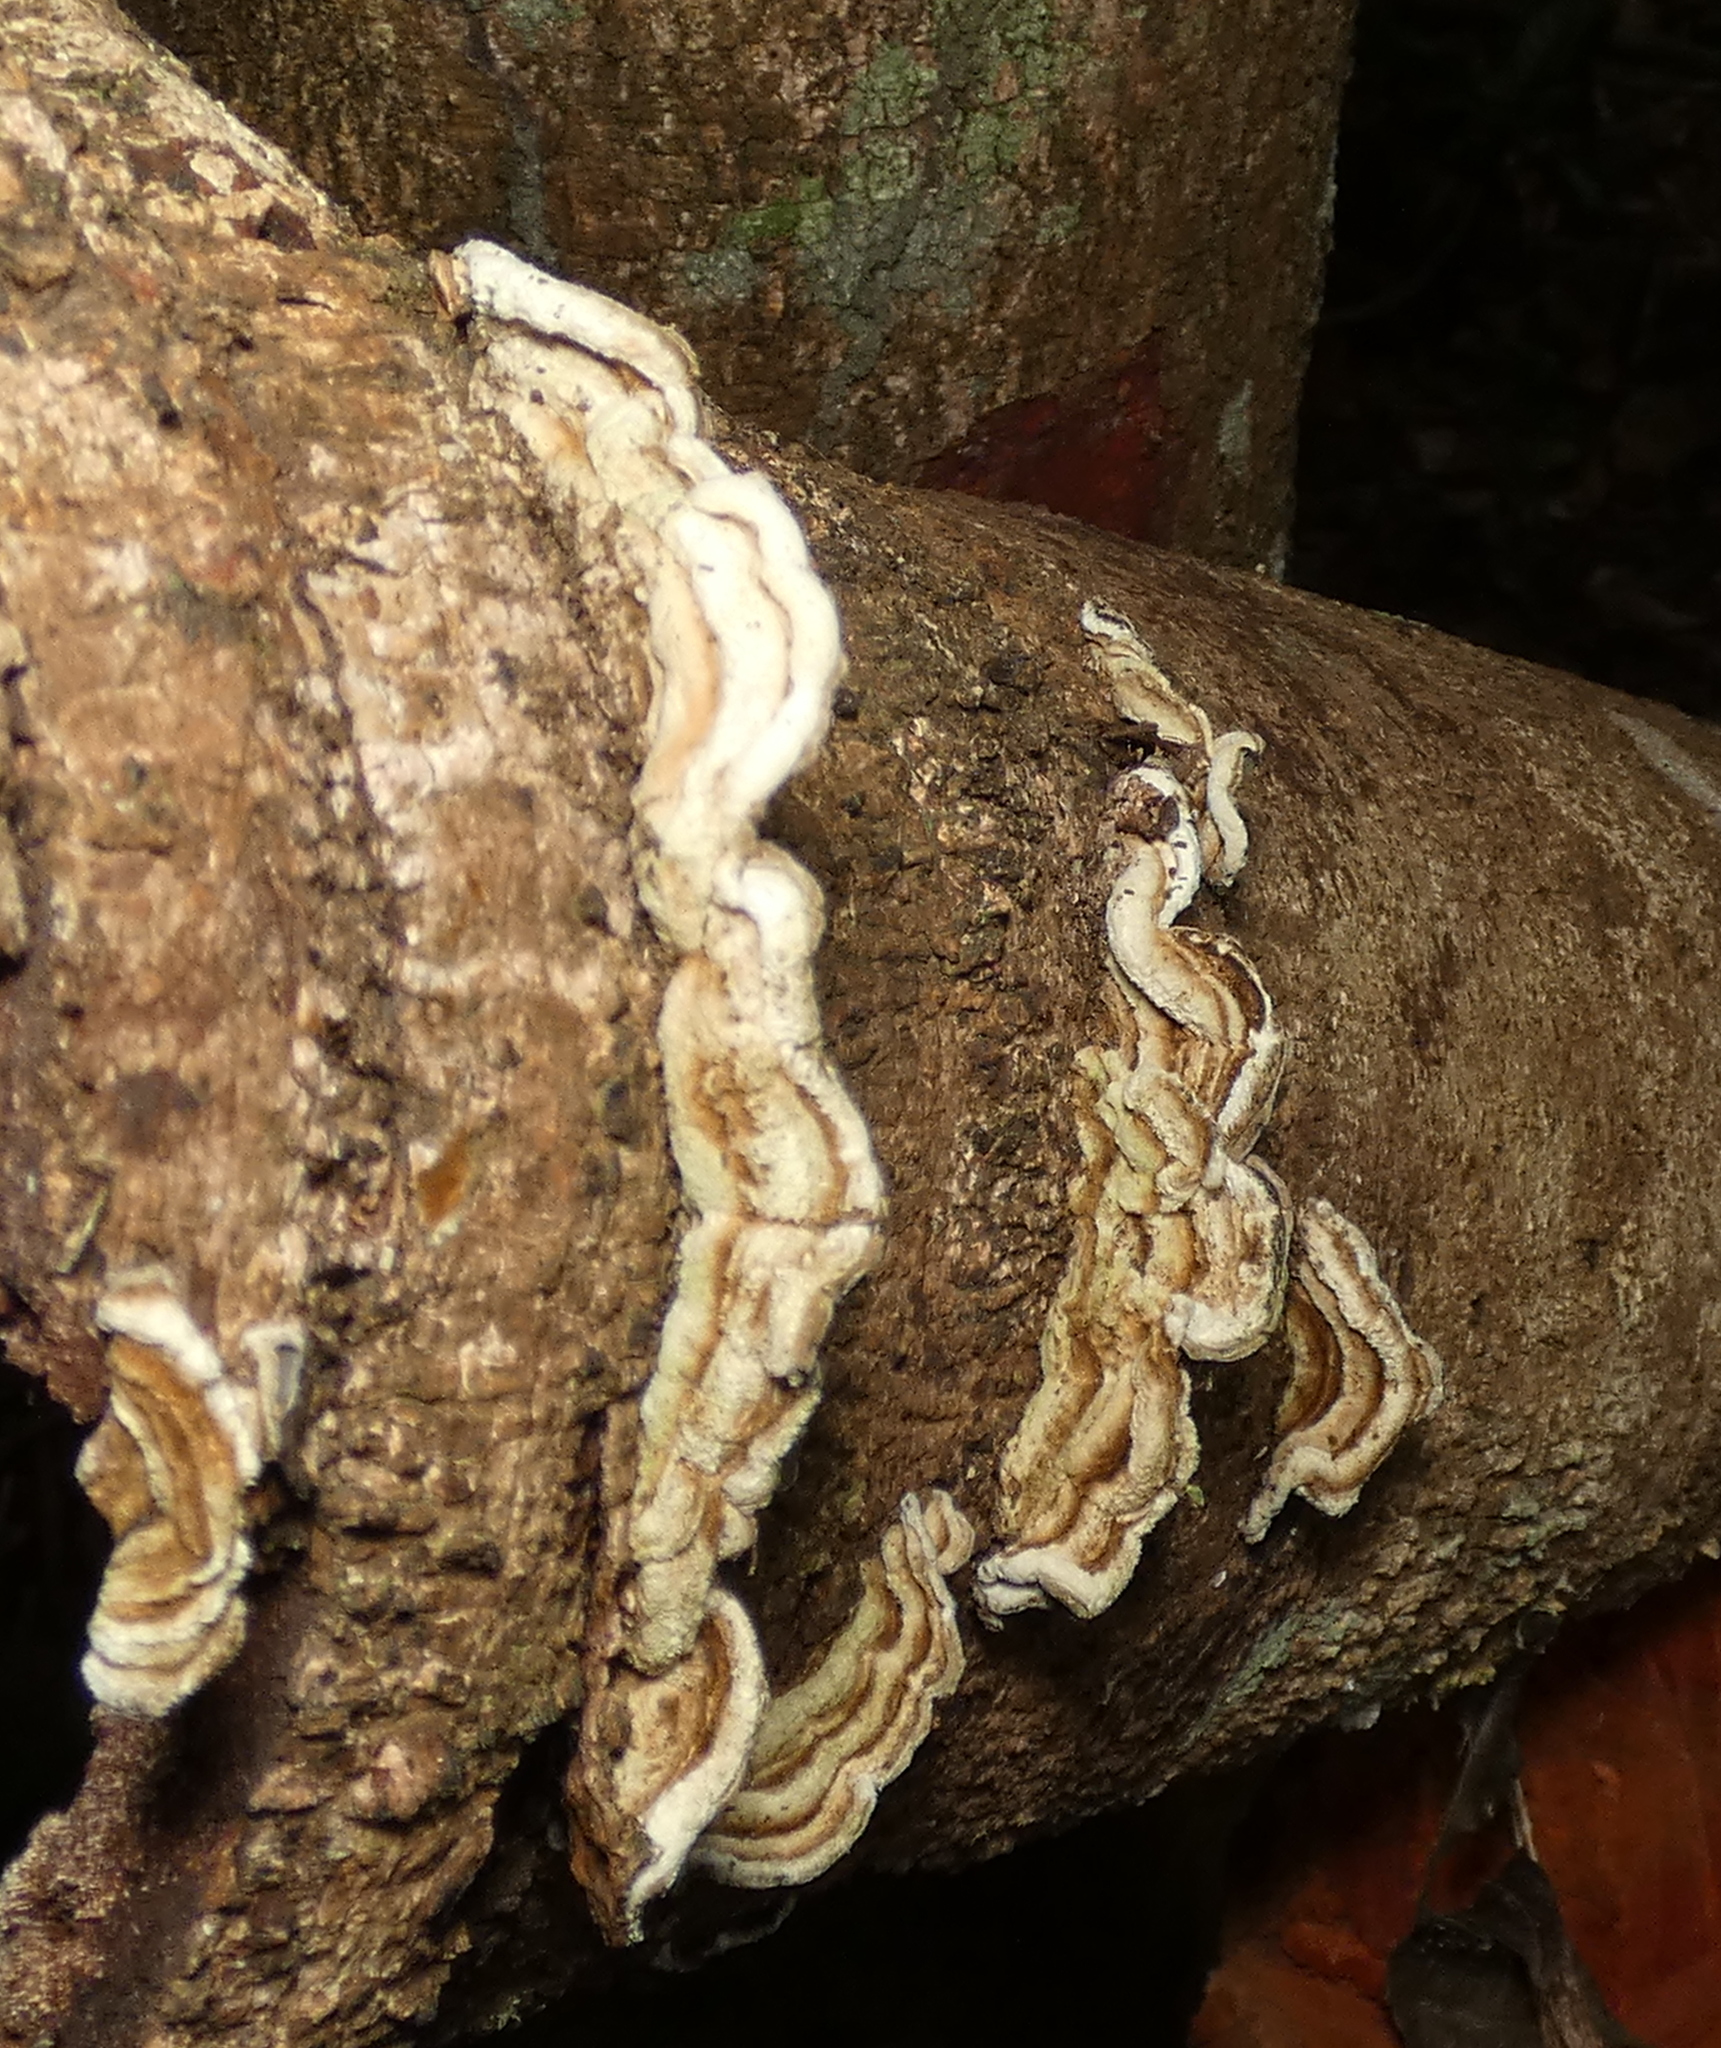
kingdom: Fungi
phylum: Basidiomycota
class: Agaricomycetes
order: Auriculariales
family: Auriculariaceae
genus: Auricularia
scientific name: Auricularia brasiliana
